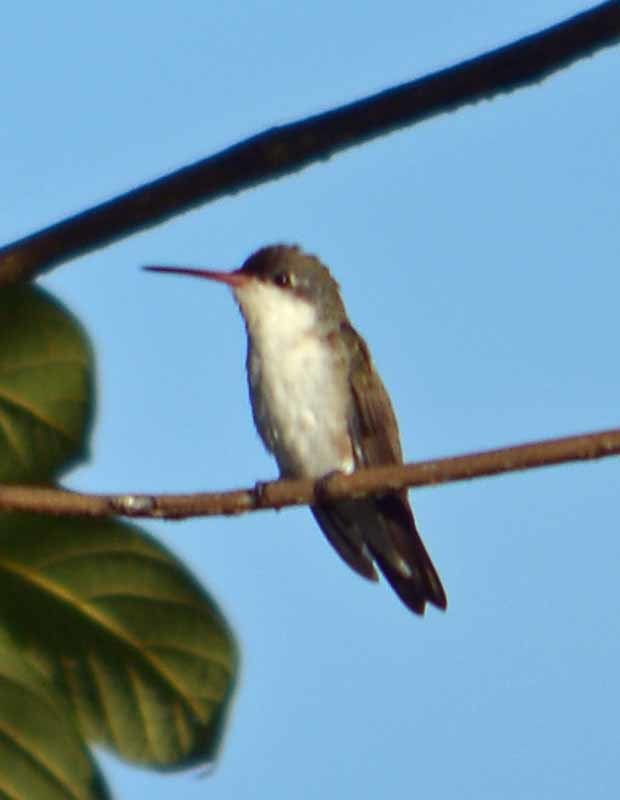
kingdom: Animalia
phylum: Chordata
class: Aves
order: Apodiformes
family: Trochilidae
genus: Leucolia
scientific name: Leucolia violiceps
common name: Violet-crowned hummingbird
